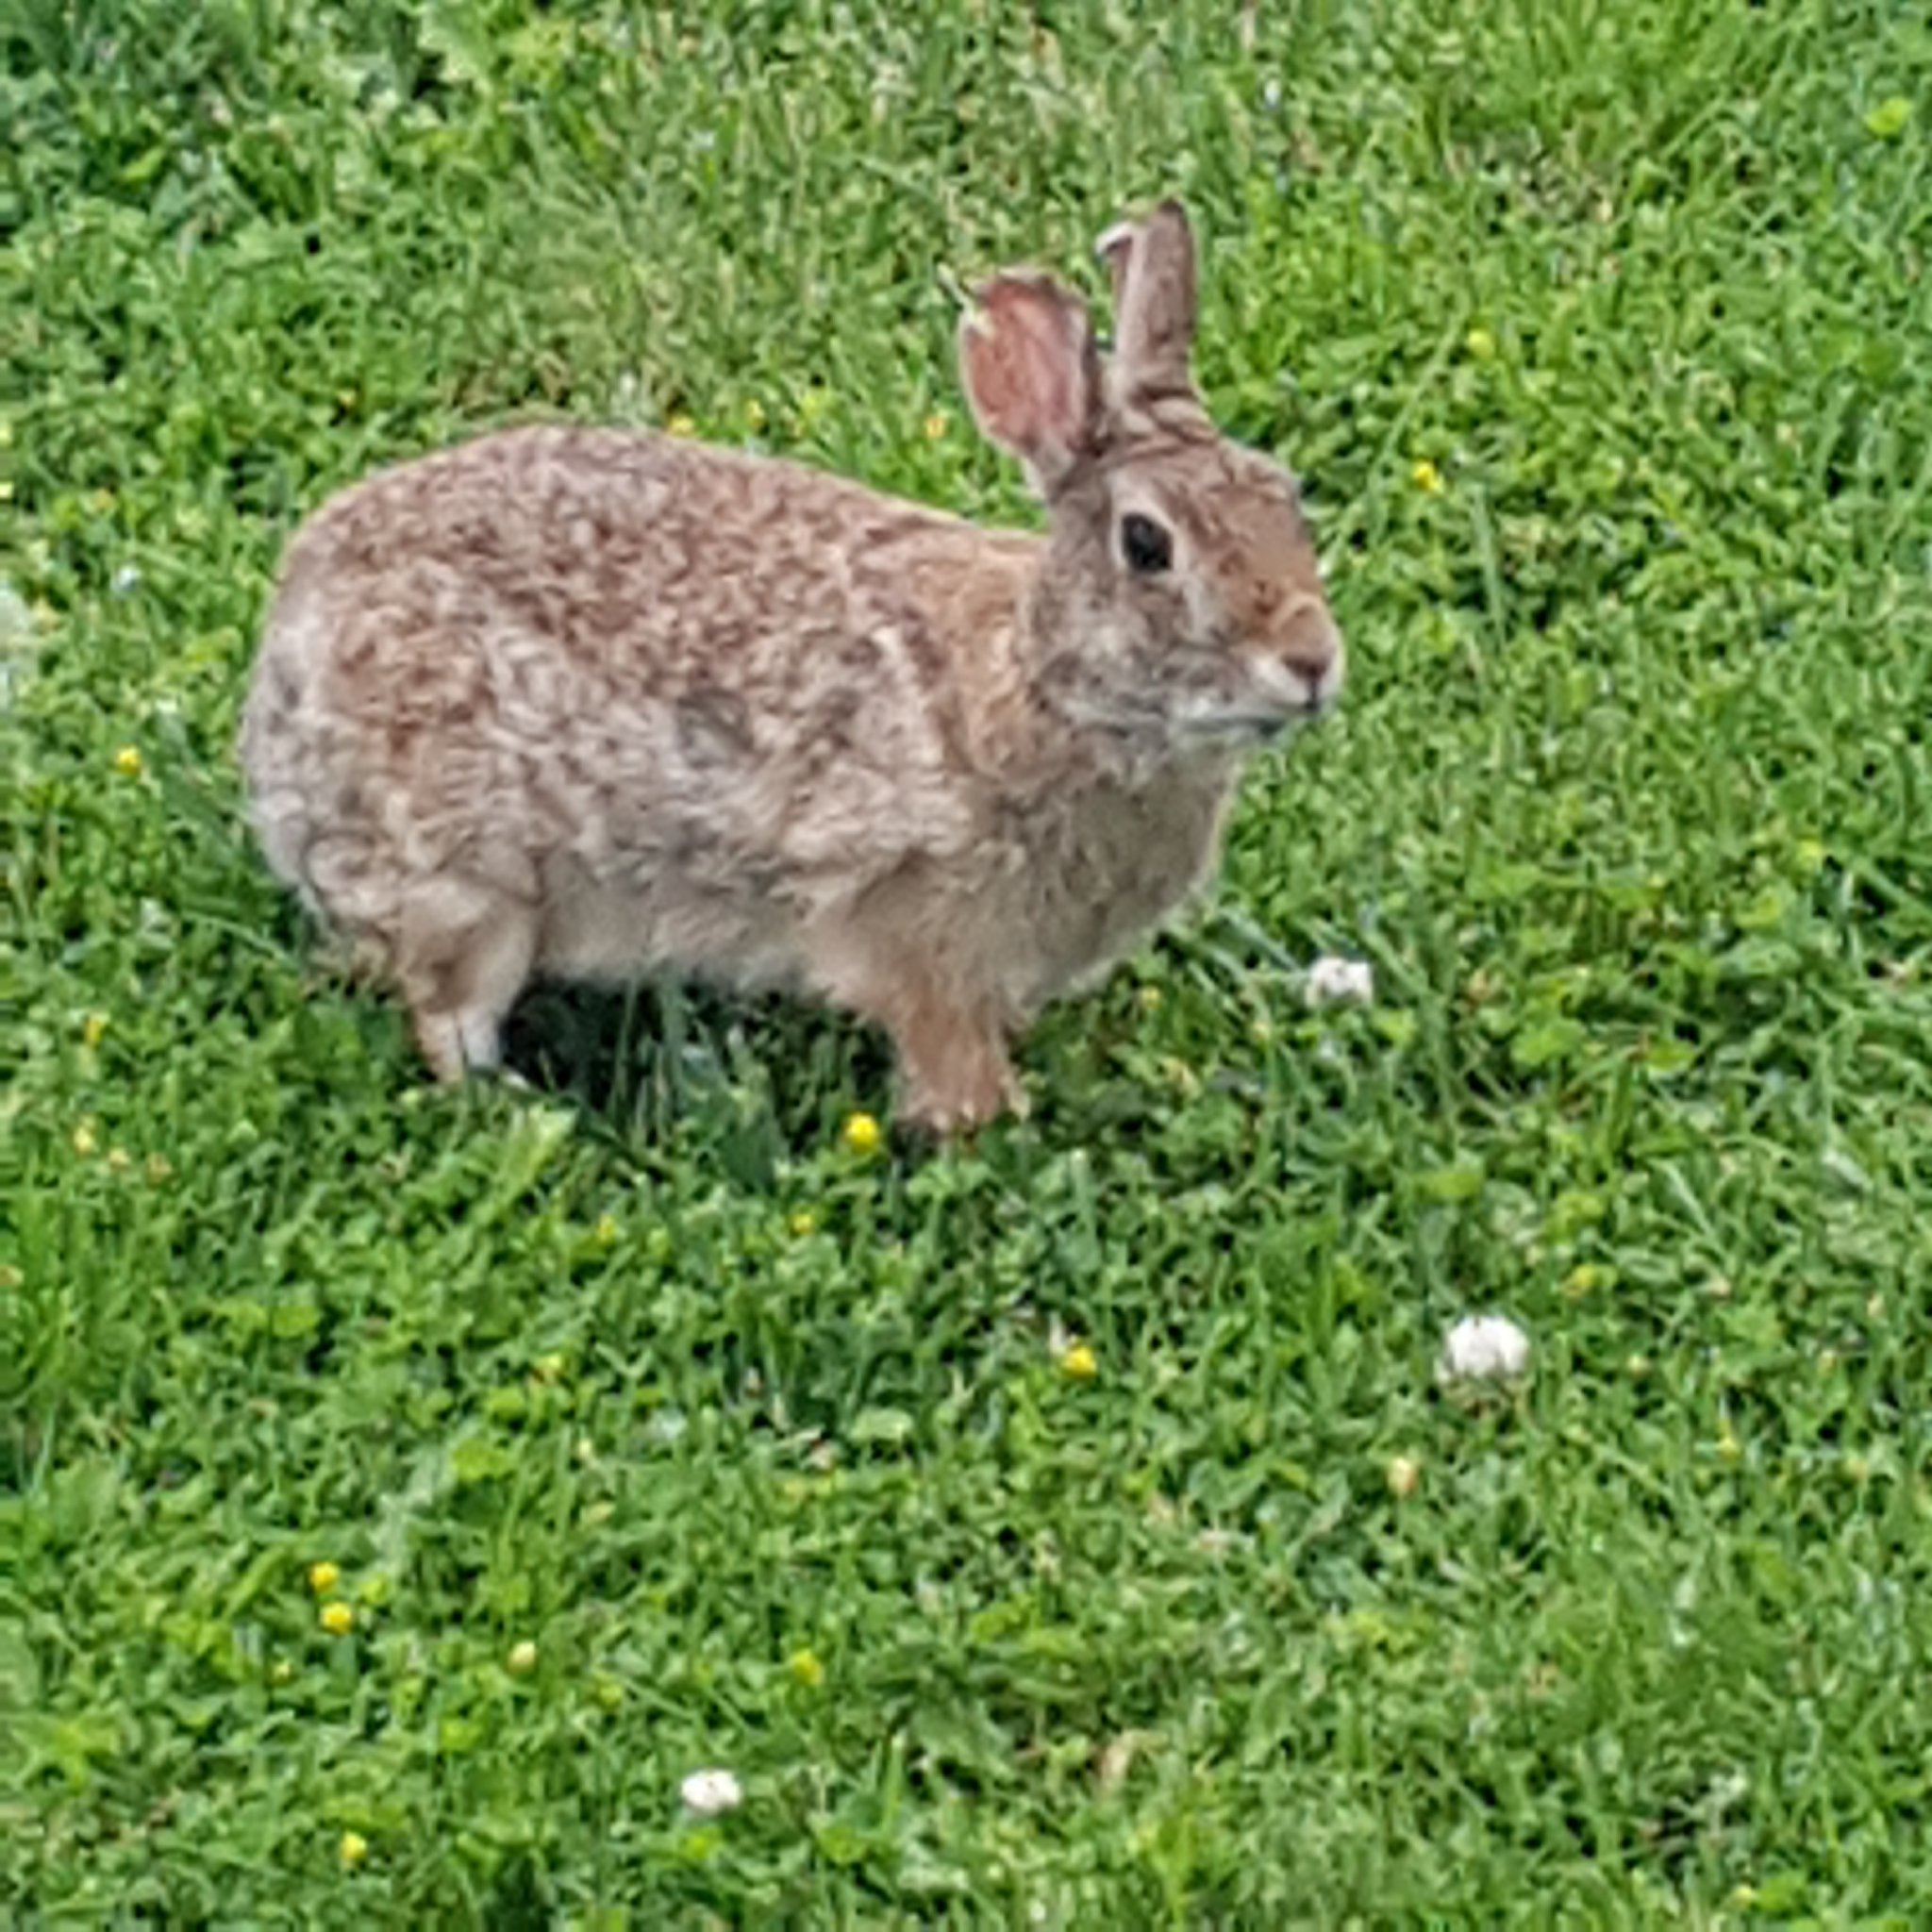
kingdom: Animalia
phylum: Chordata
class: Mammalia
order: Lagomorpha
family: Leporidae
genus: Sylvilagus
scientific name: Sylvilagus floridanus
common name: Eastern cottontail
